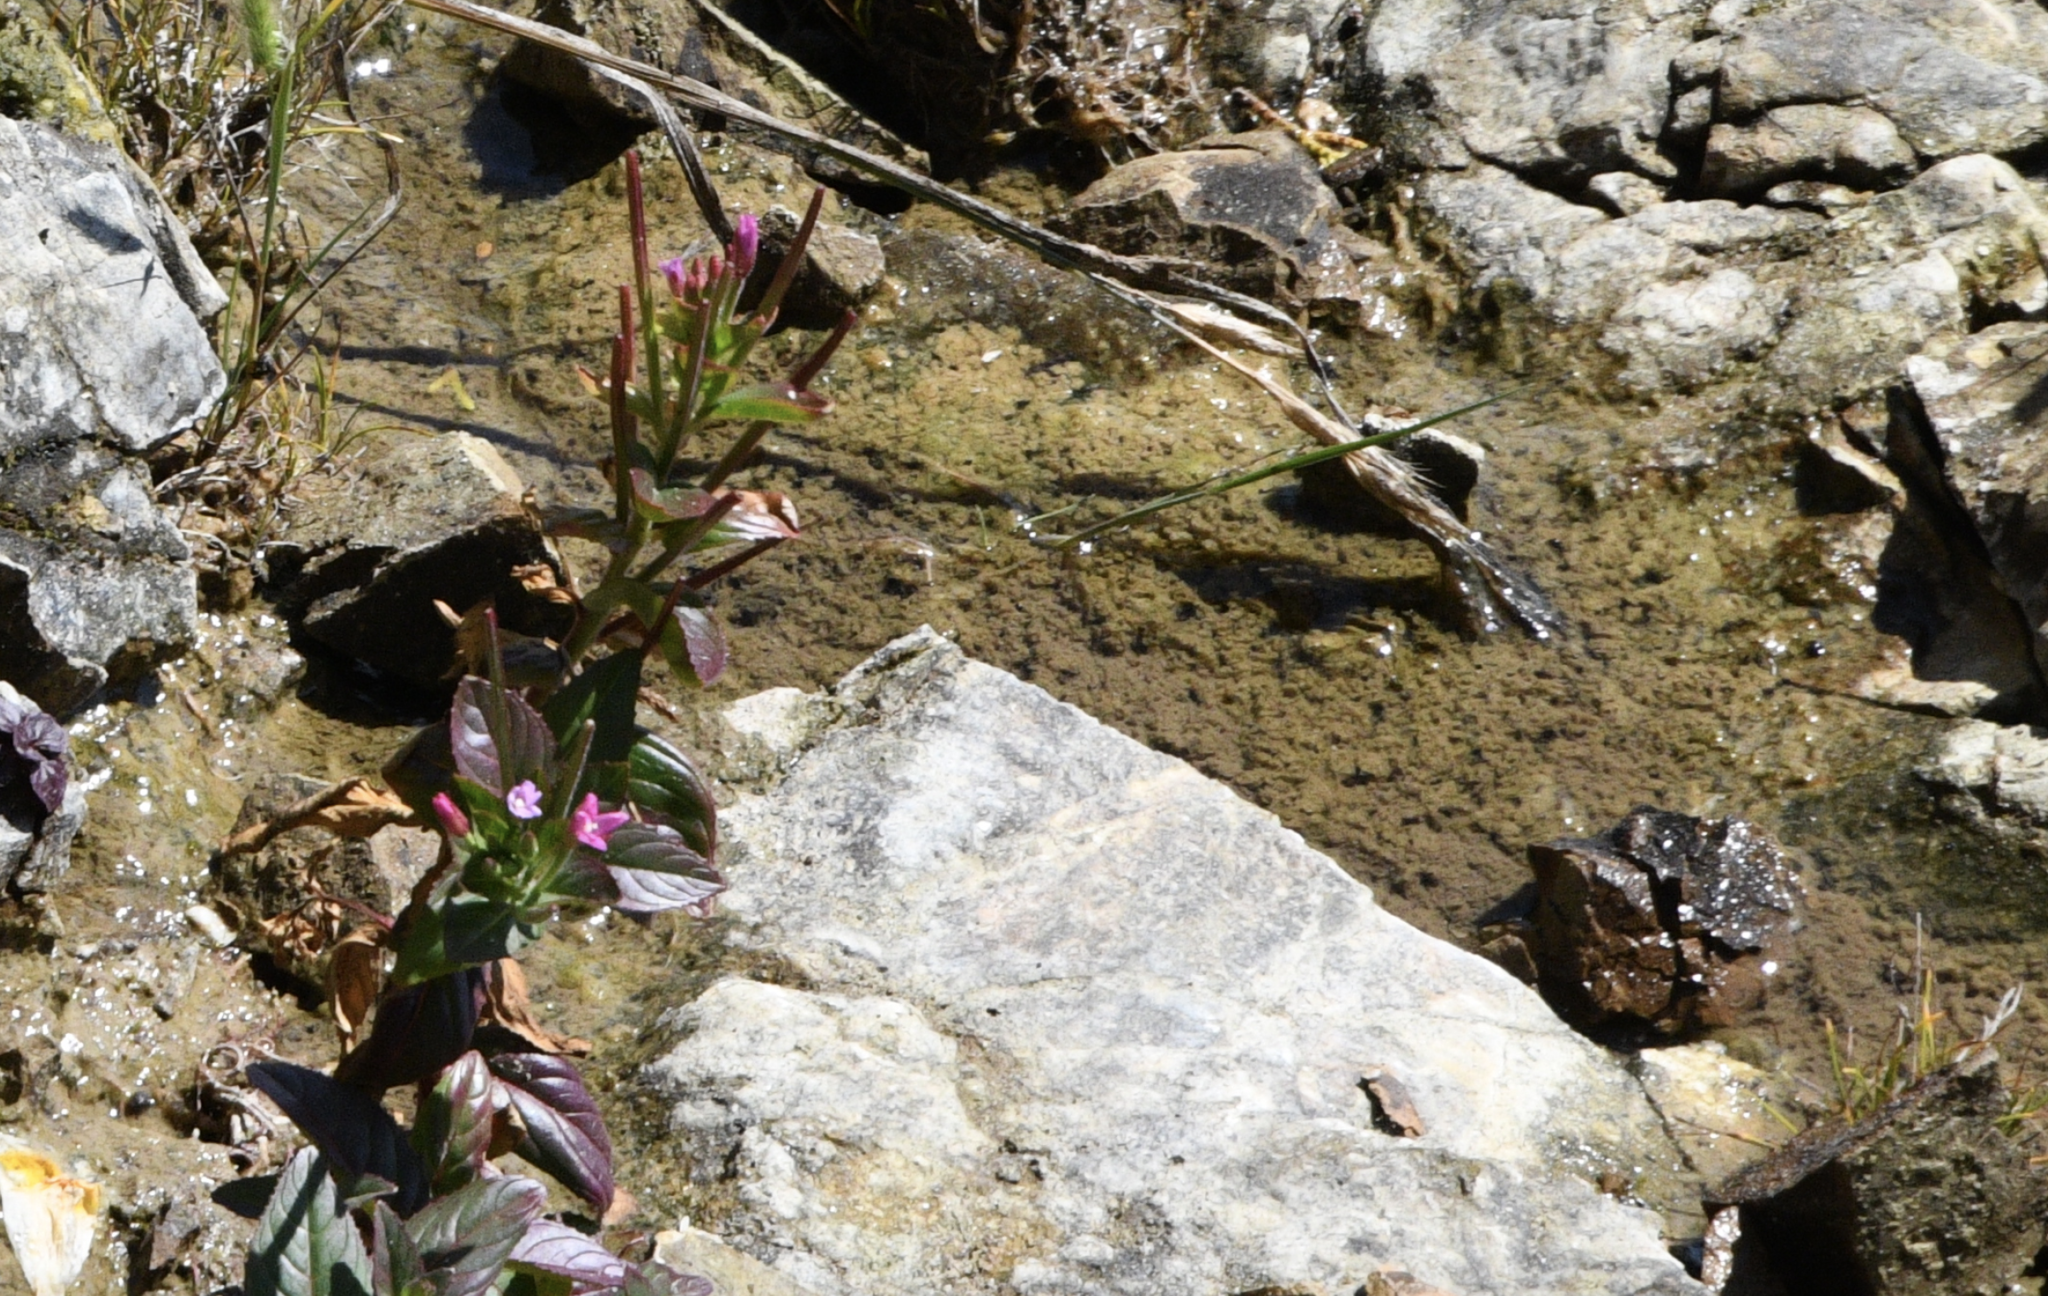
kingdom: Plantae
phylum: Tracheophyta
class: Magnoliopsida
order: Myrtales
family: Onagraceae
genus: Epilobium
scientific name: Epilobium ciliatum
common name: American willowherb
